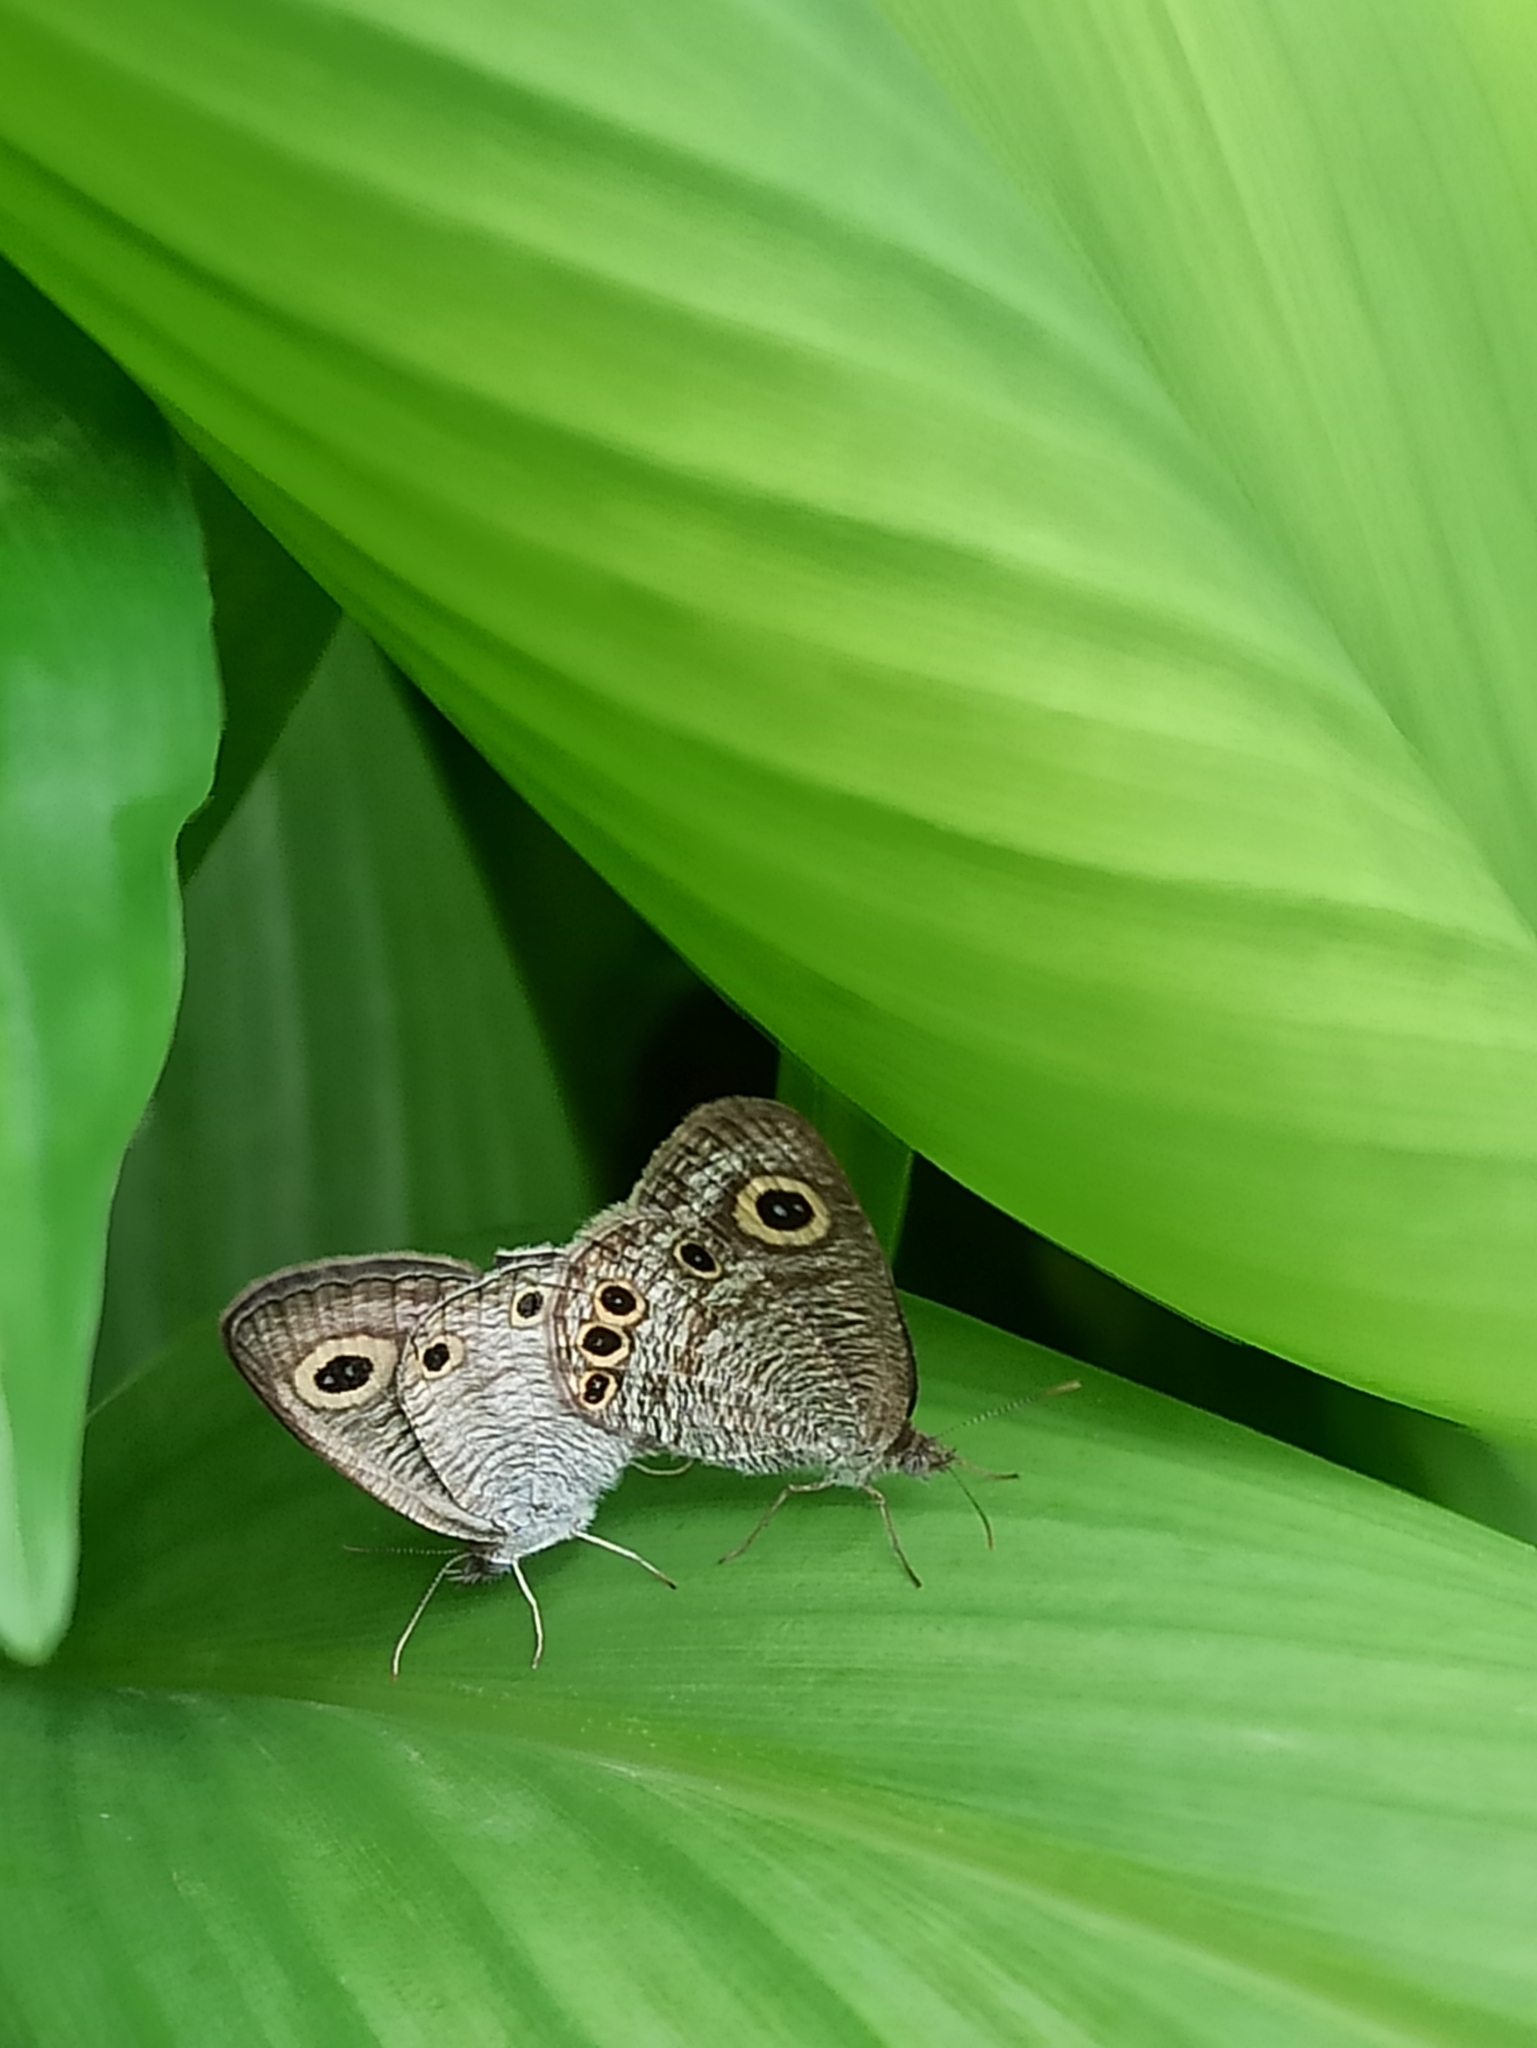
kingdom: Animalia
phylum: Arthropoda
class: Insecta
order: Lepidoptera
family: Nymphalidae
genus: Ypthima
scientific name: Ypthima huebneri
